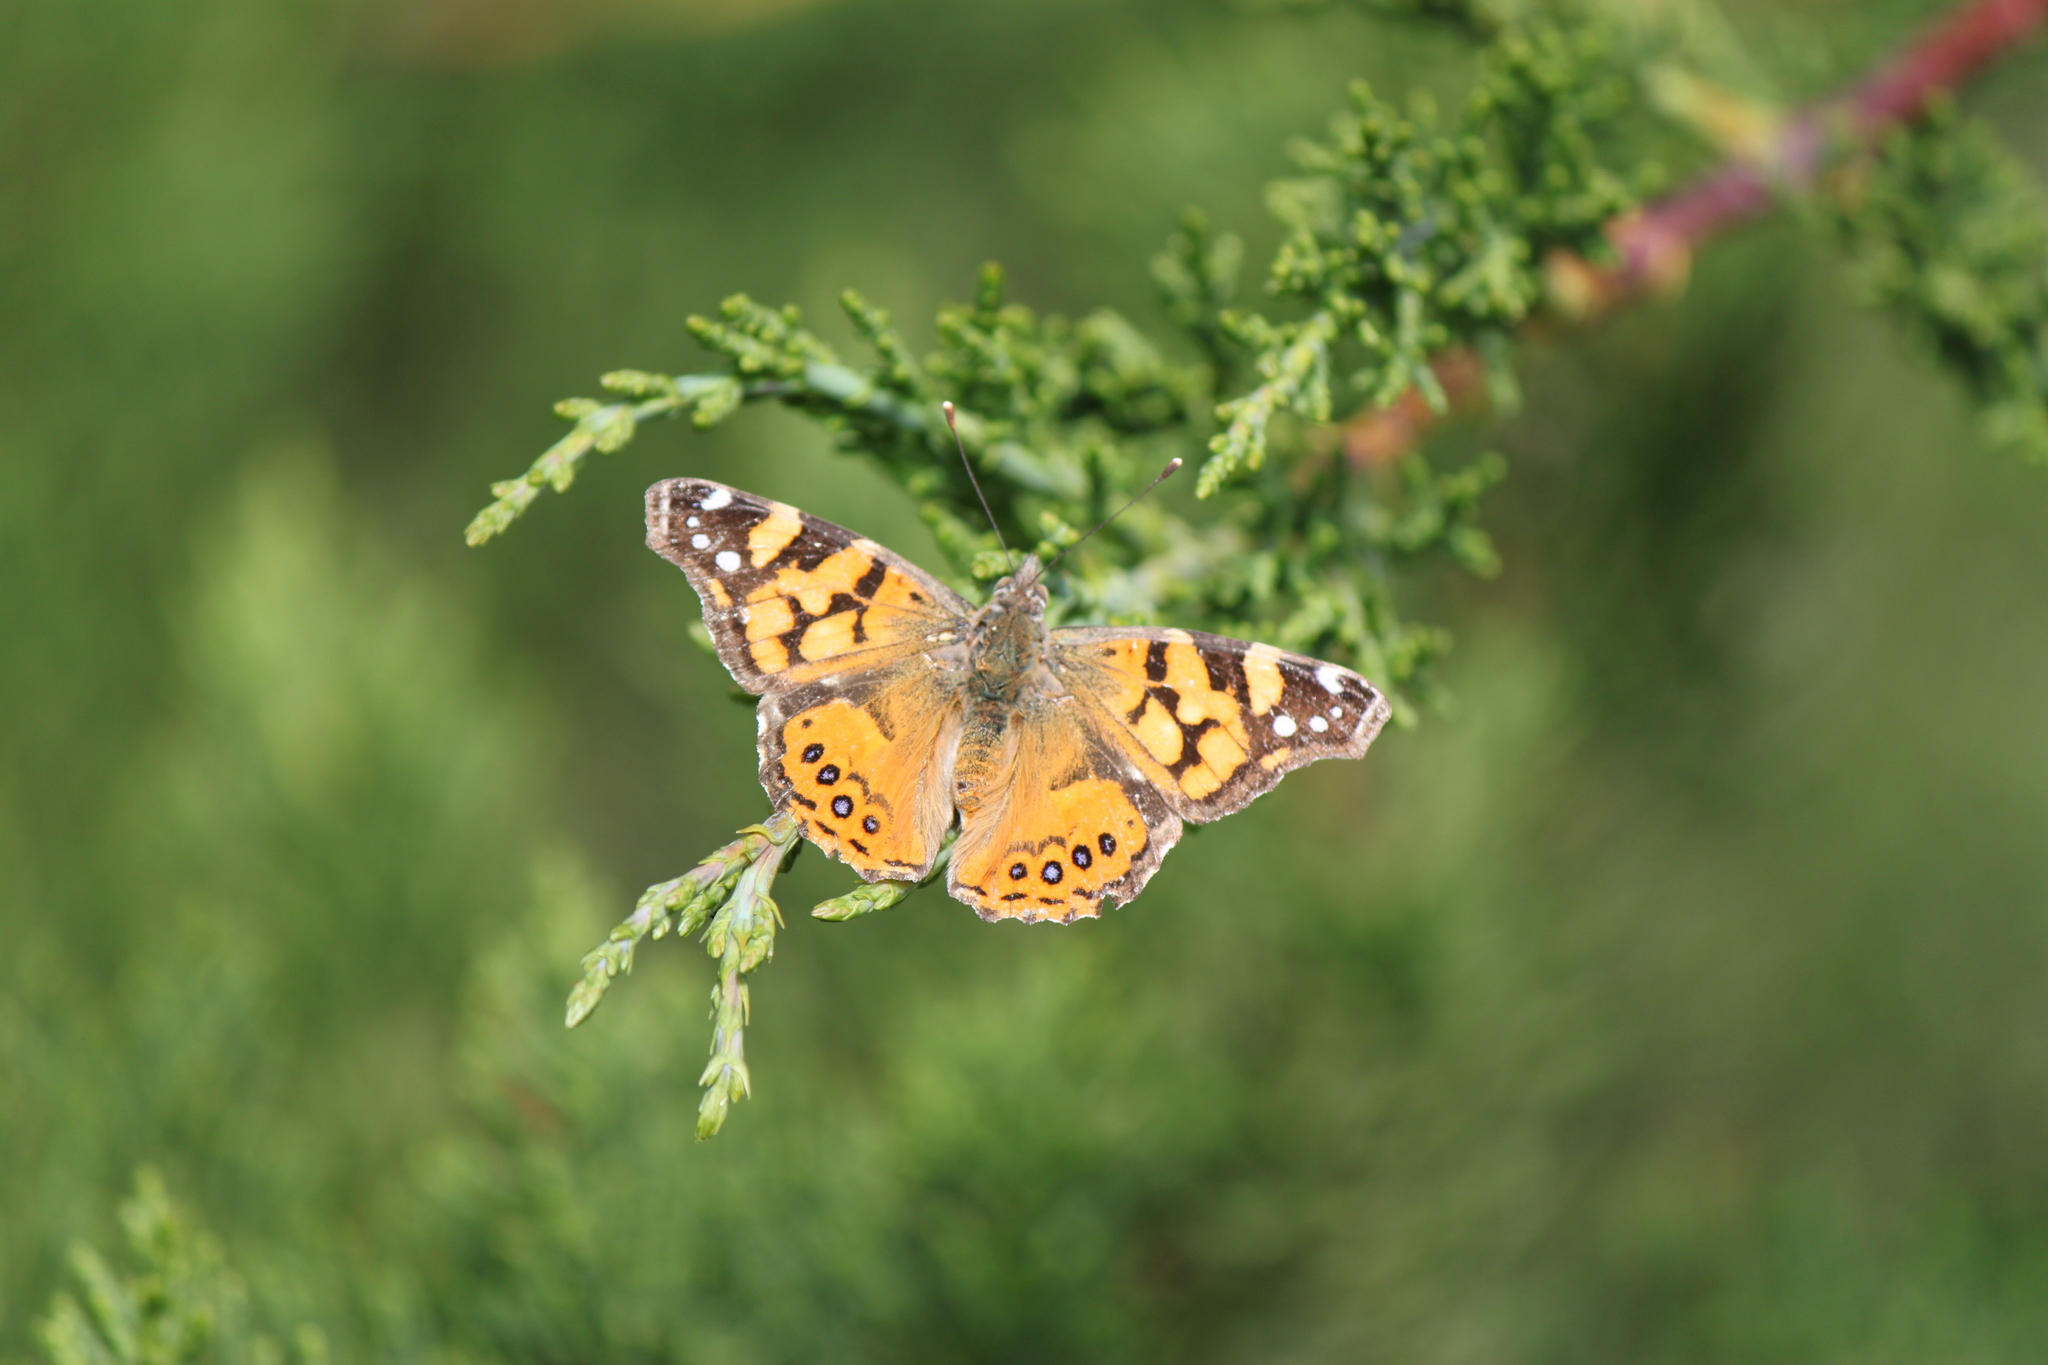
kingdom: Animalia
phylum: Arthropoda
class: Insecta
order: Lepidoptera
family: Nymphalidae
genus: Vanessa
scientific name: Vanessa annabella
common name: West coast lady
